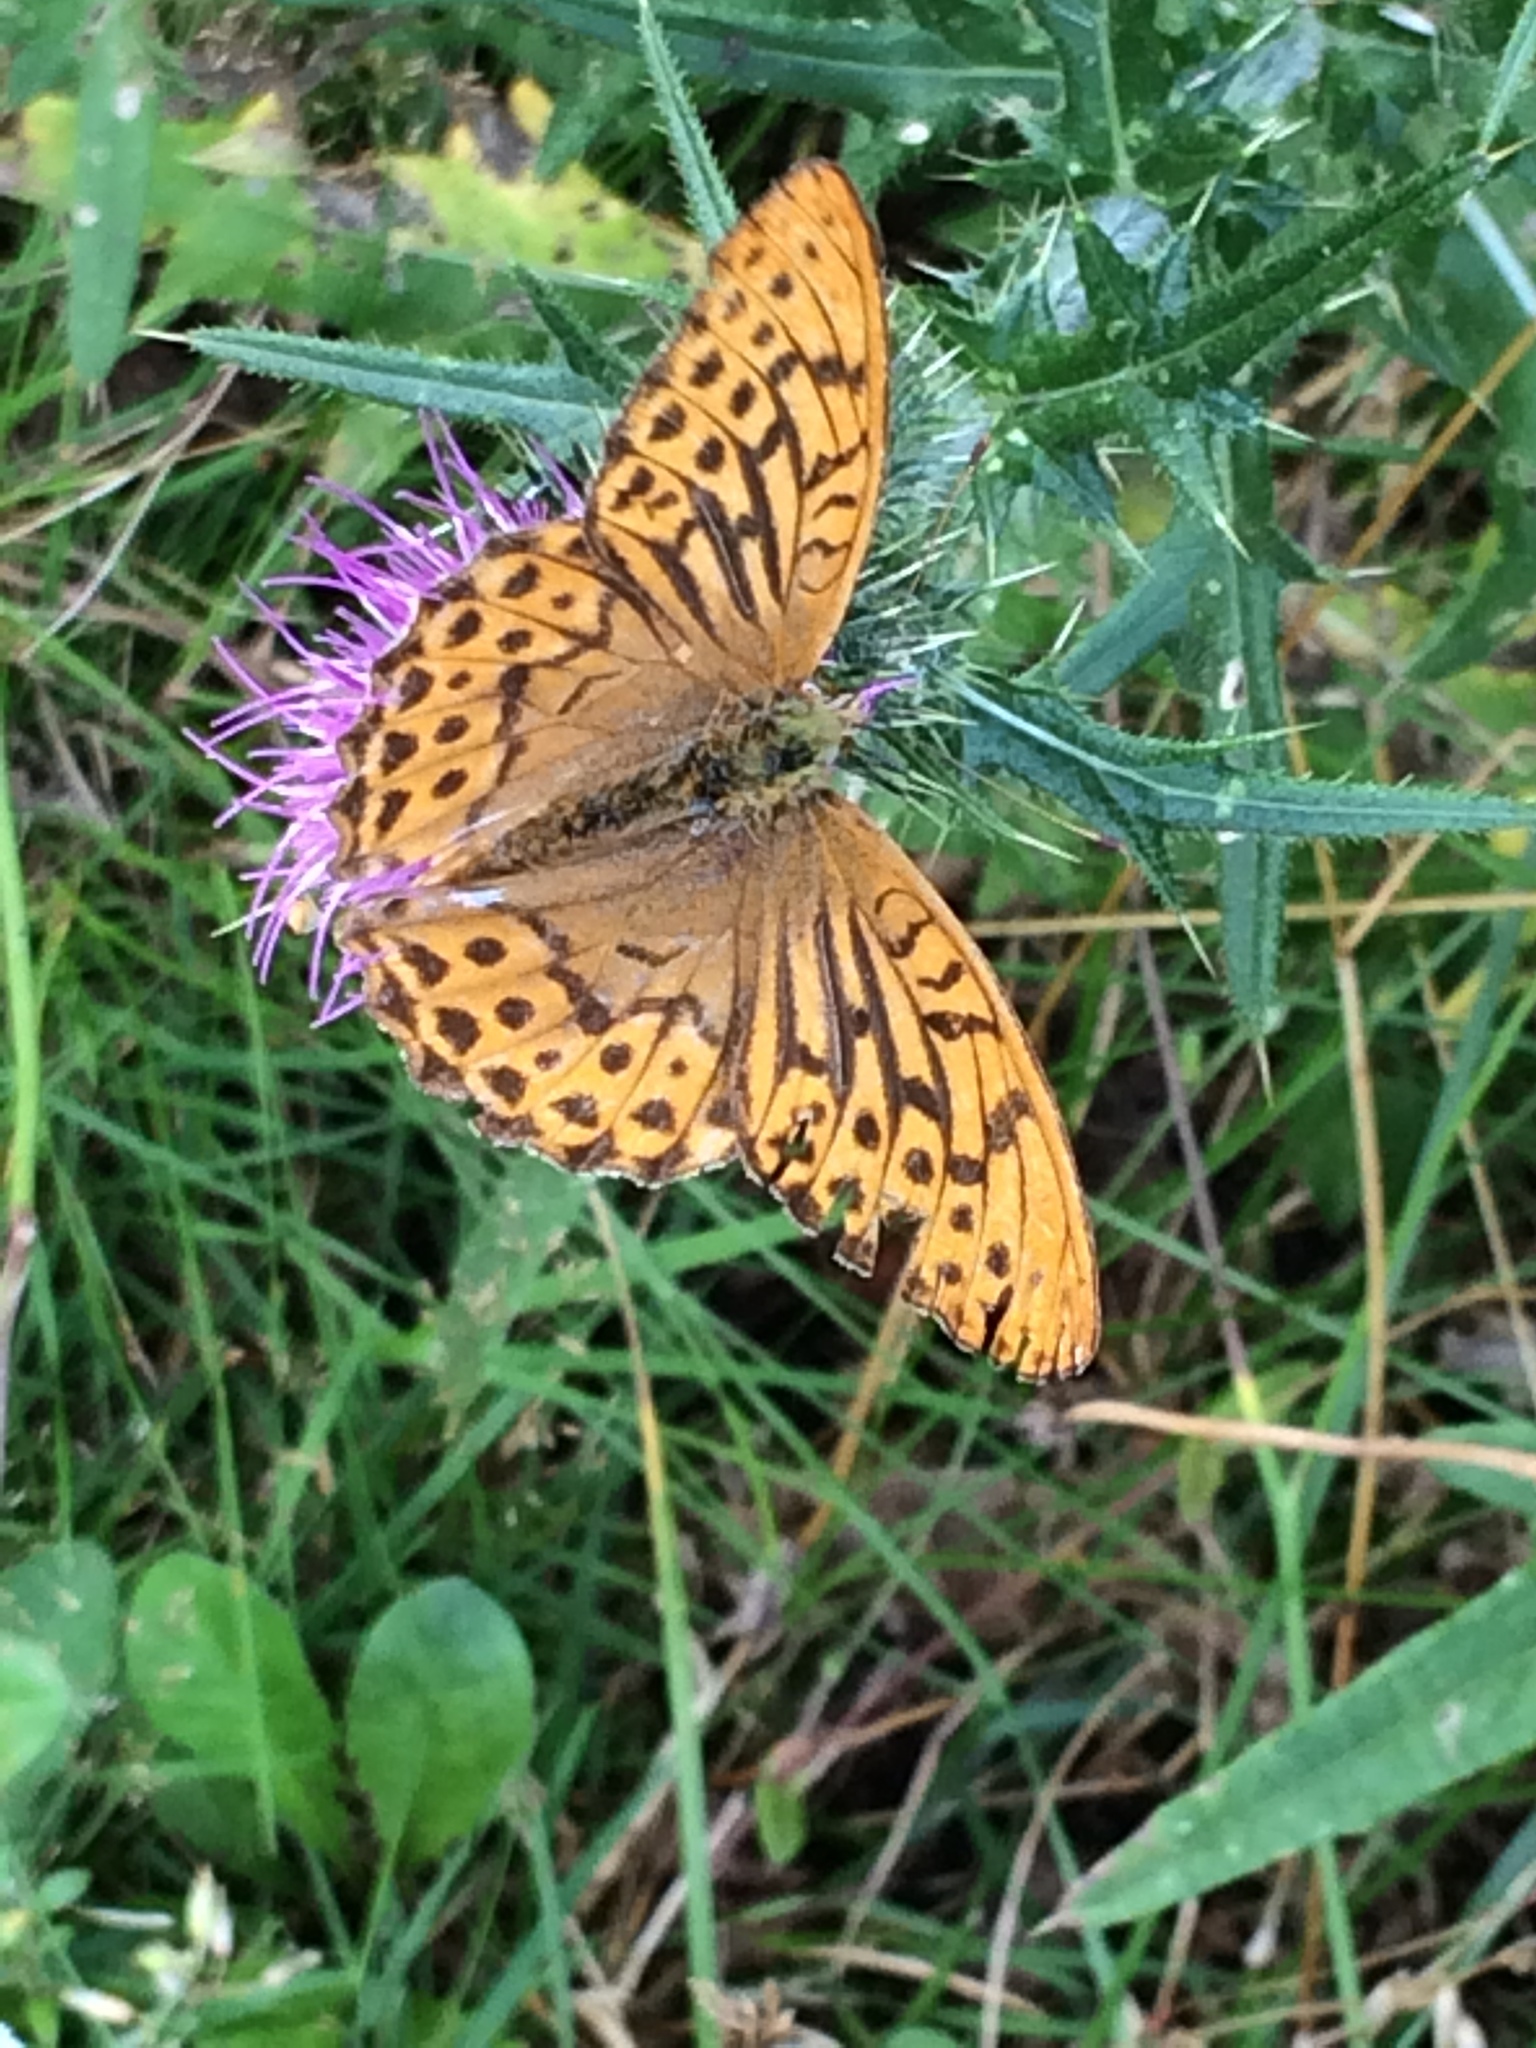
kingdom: Animalia
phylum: Arthropoda
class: Insecta
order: Lepidoptera
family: Nymphalidae
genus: Argynnis
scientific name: Argynnis paphia
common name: Silver-washed fritillary
